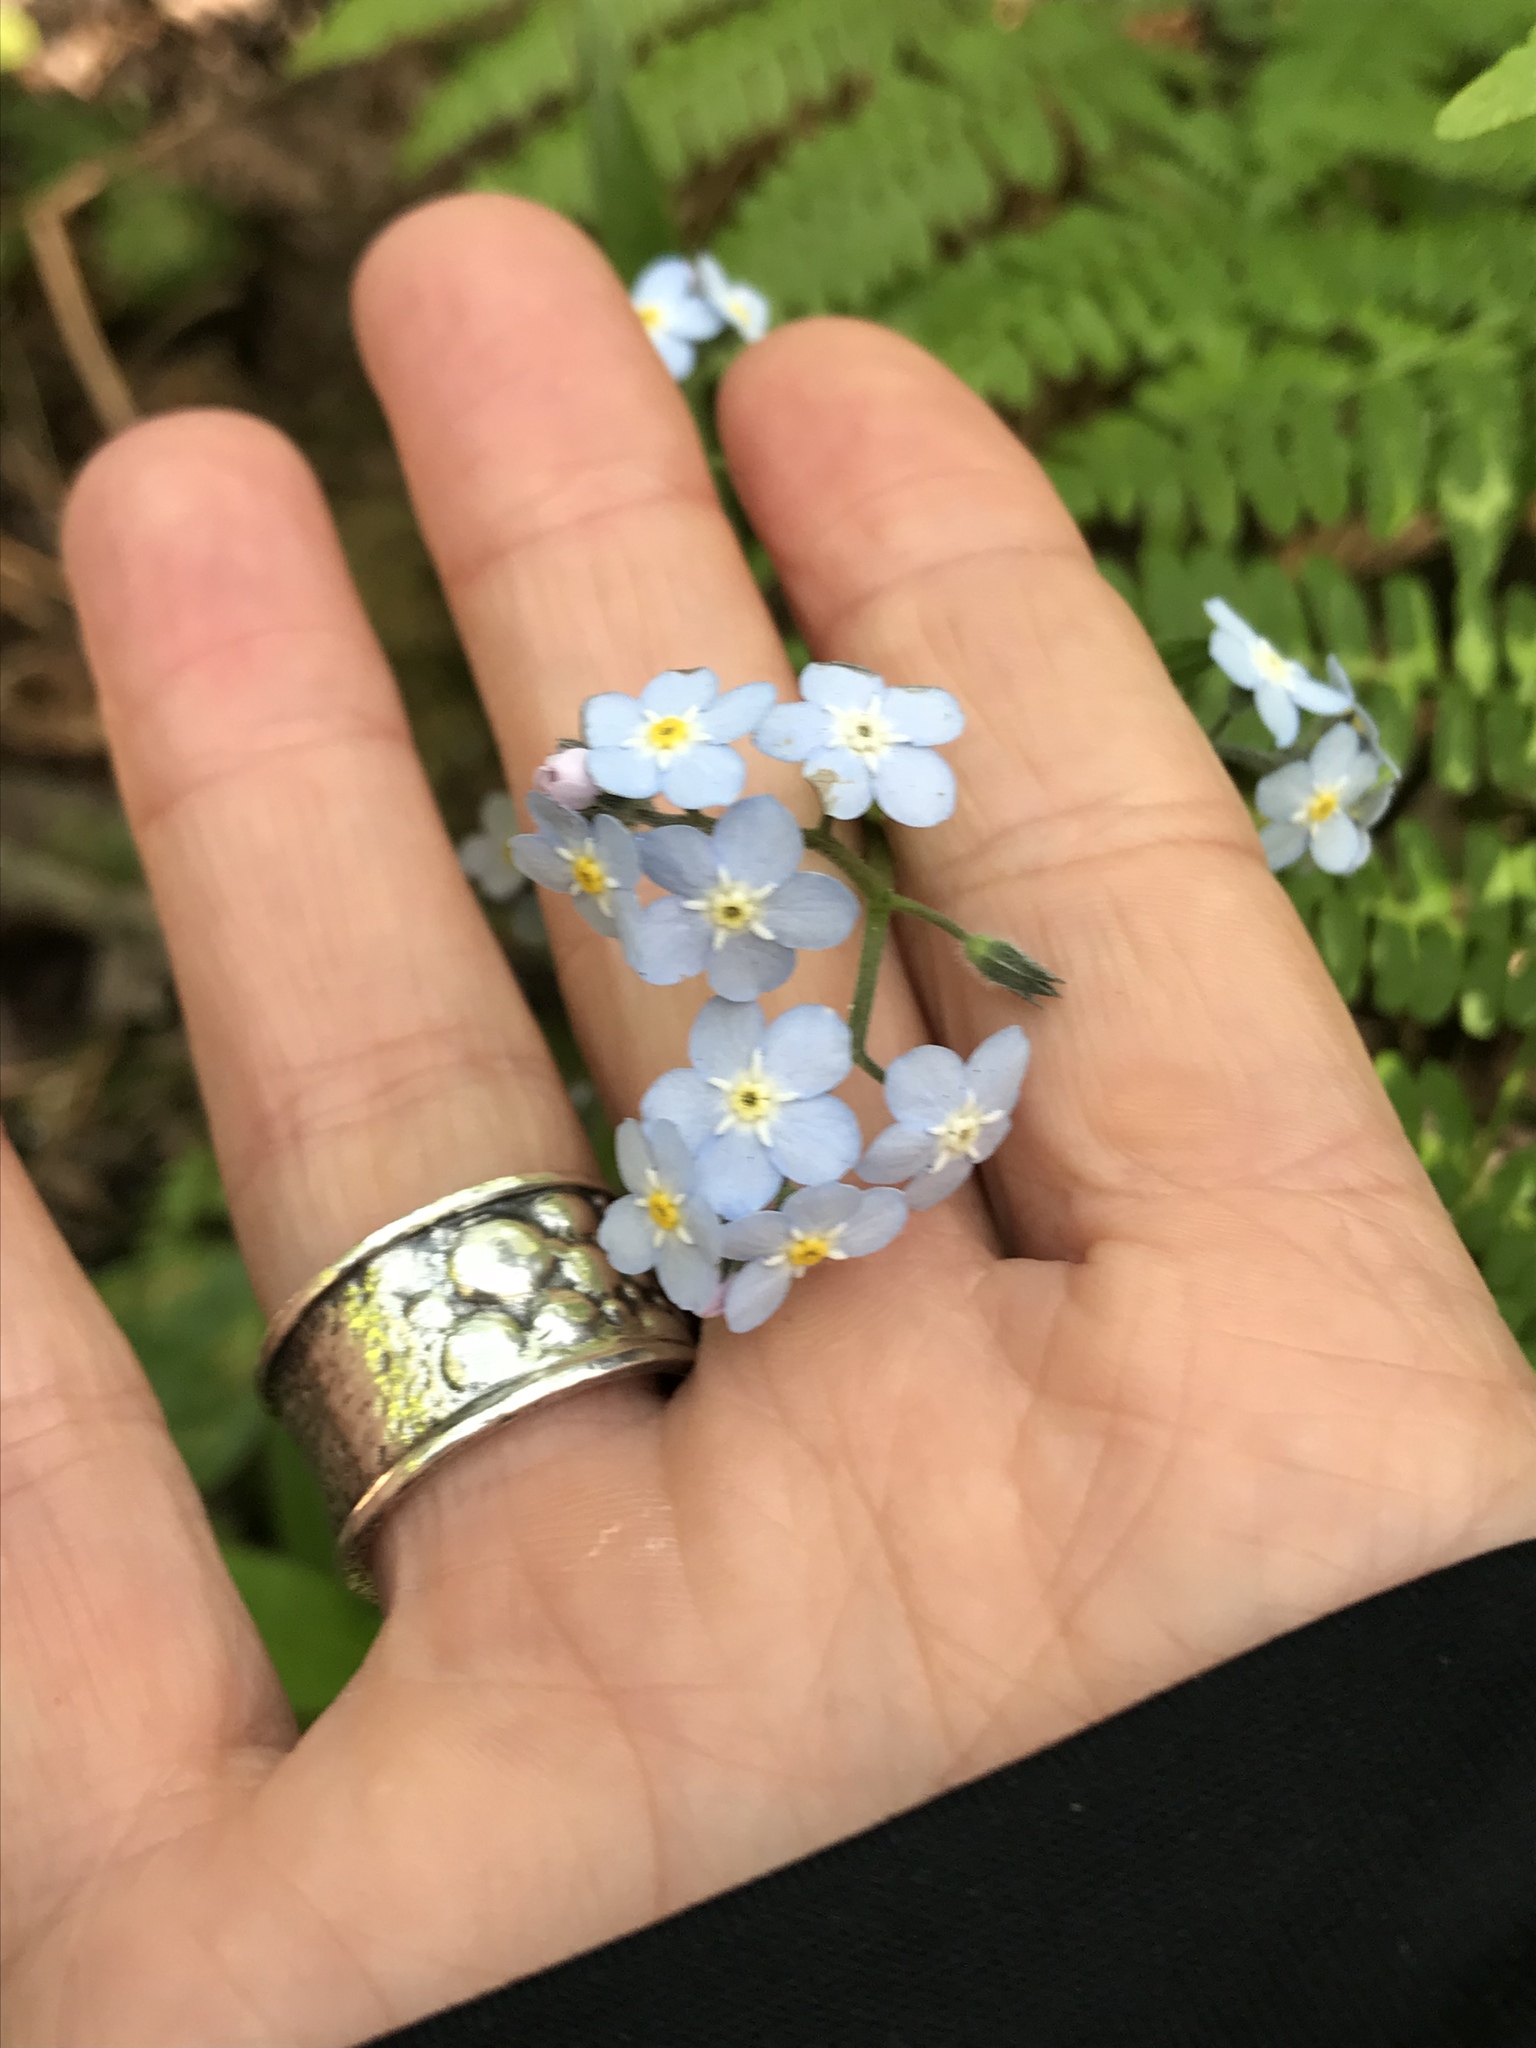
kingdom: Plantae
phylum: Tracheophyta
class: Magnoliopsida
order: Boraginales
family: Boraginaceae
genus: Myosotis
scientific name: Myosotis latifolia
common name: Broadleaf forget-me-not
